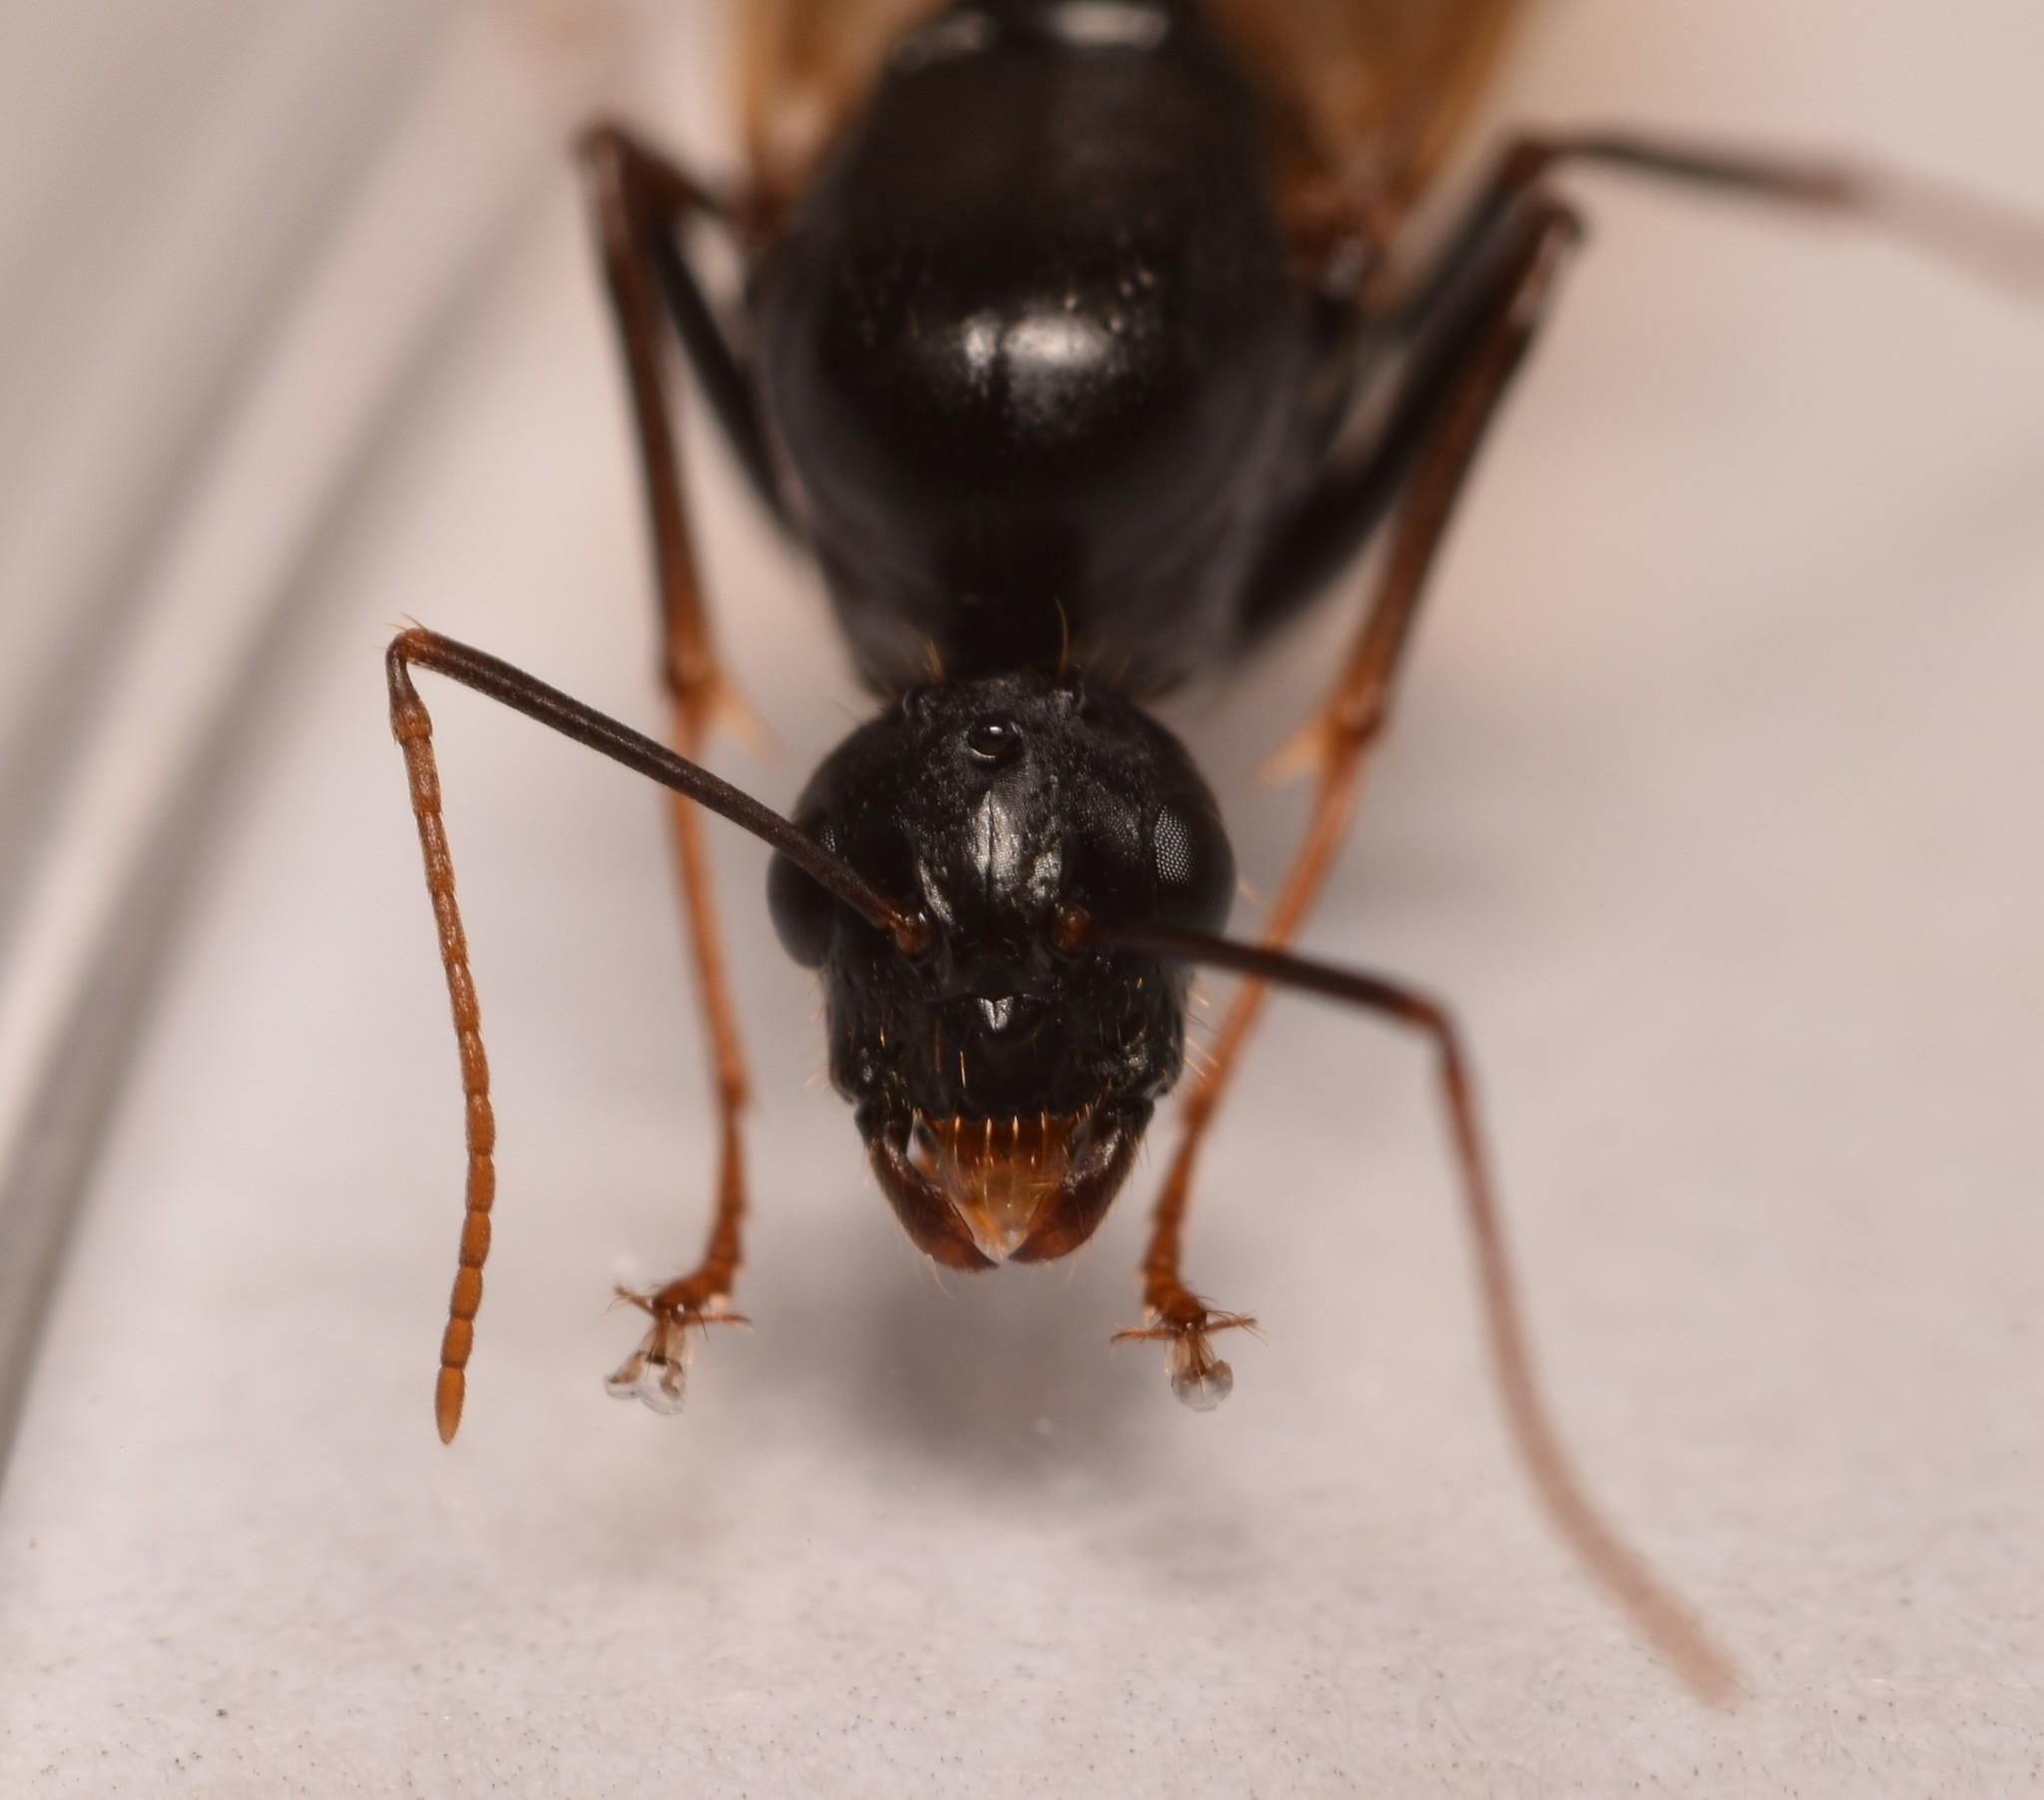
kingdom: Animalia
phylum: Arthropoda
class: Insecta
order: Hymenoptera
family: Formicidae
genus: Camponotus
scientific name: Camponotus sansabeanus
